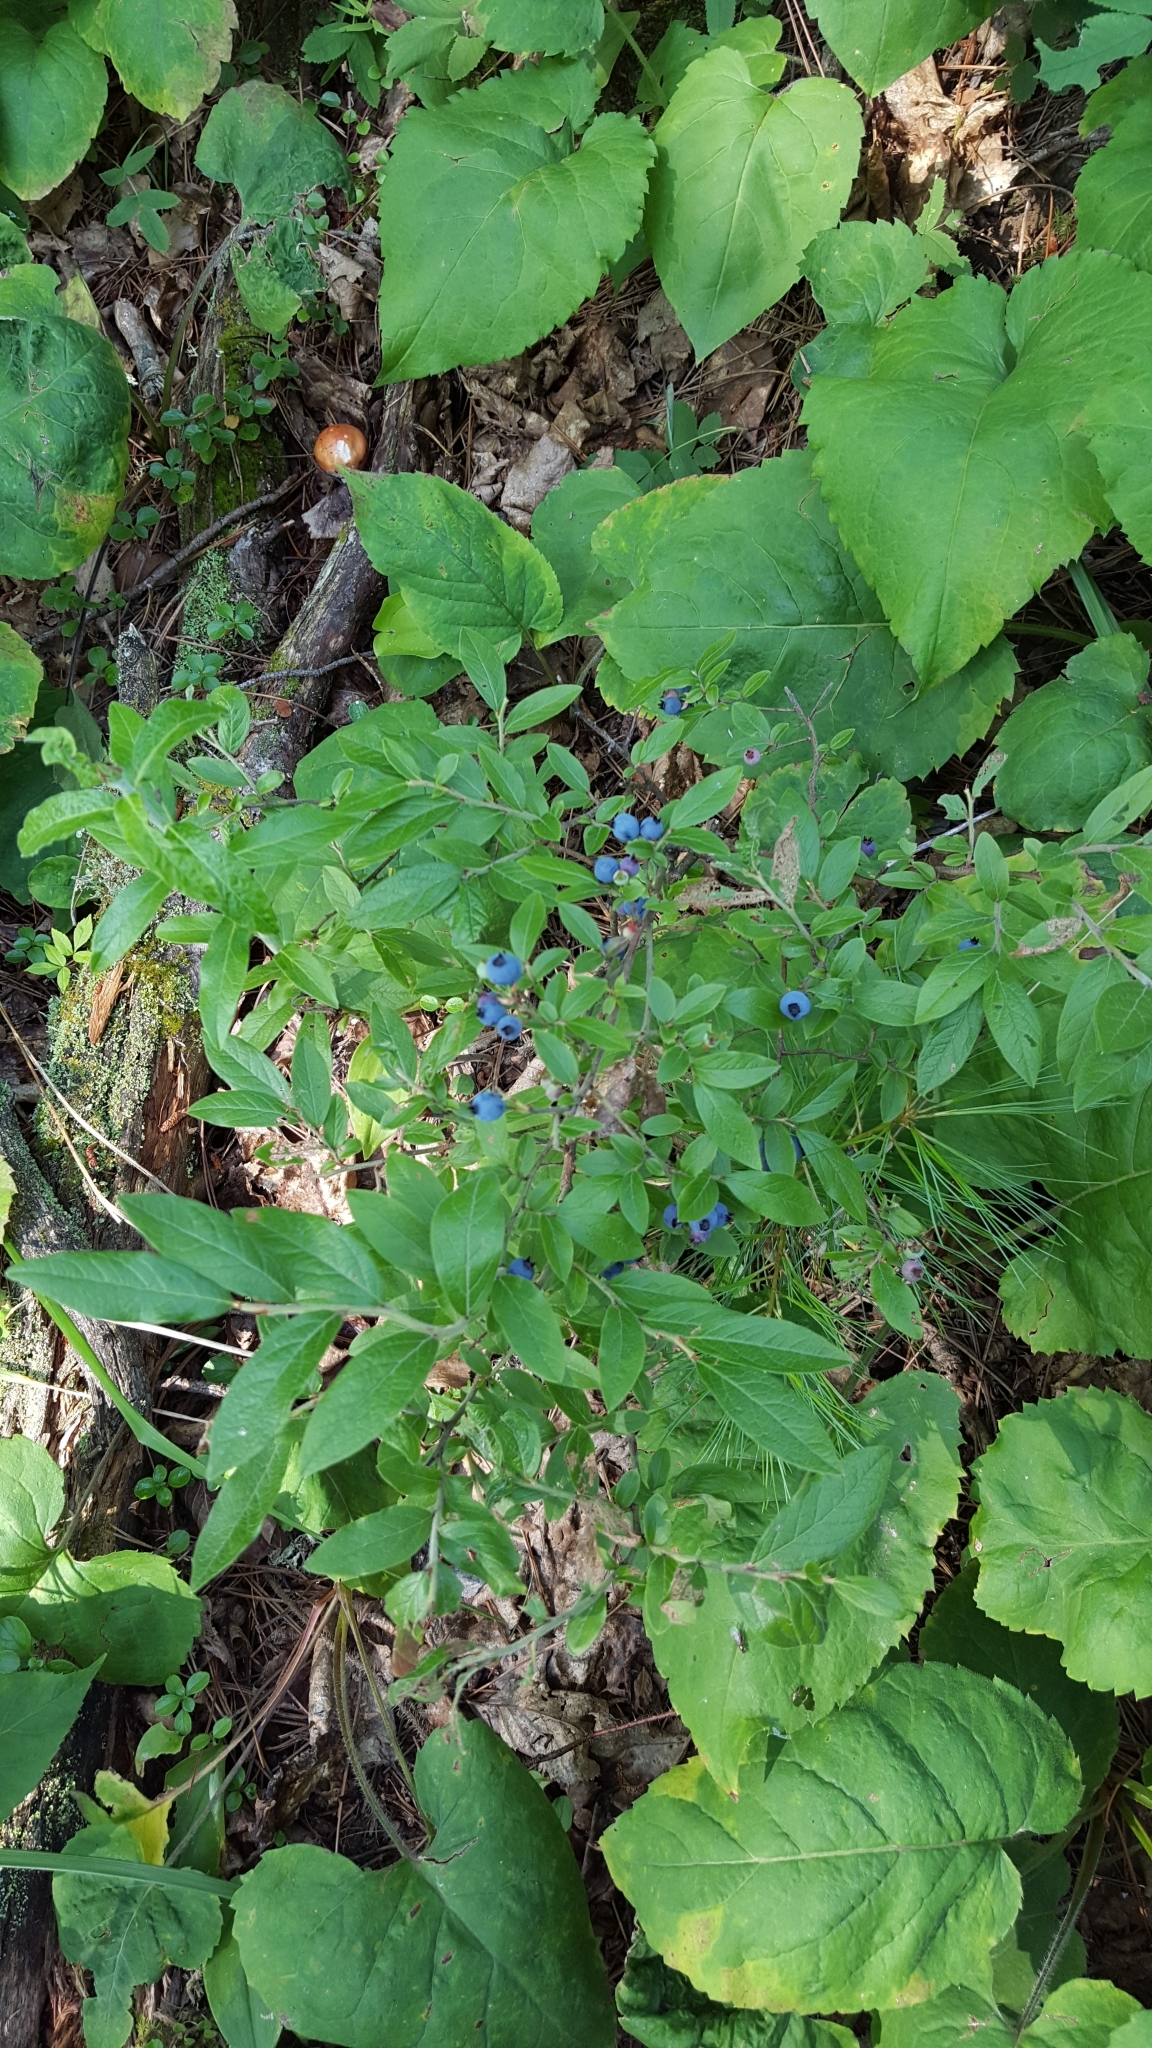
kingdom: Plantae
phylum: Tracheophyta
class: Magnoliopsida
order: Ericales
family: Ericaceae
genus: Vaccinium
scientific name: Vaccinium myrtilloides
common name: Canada blueberry
